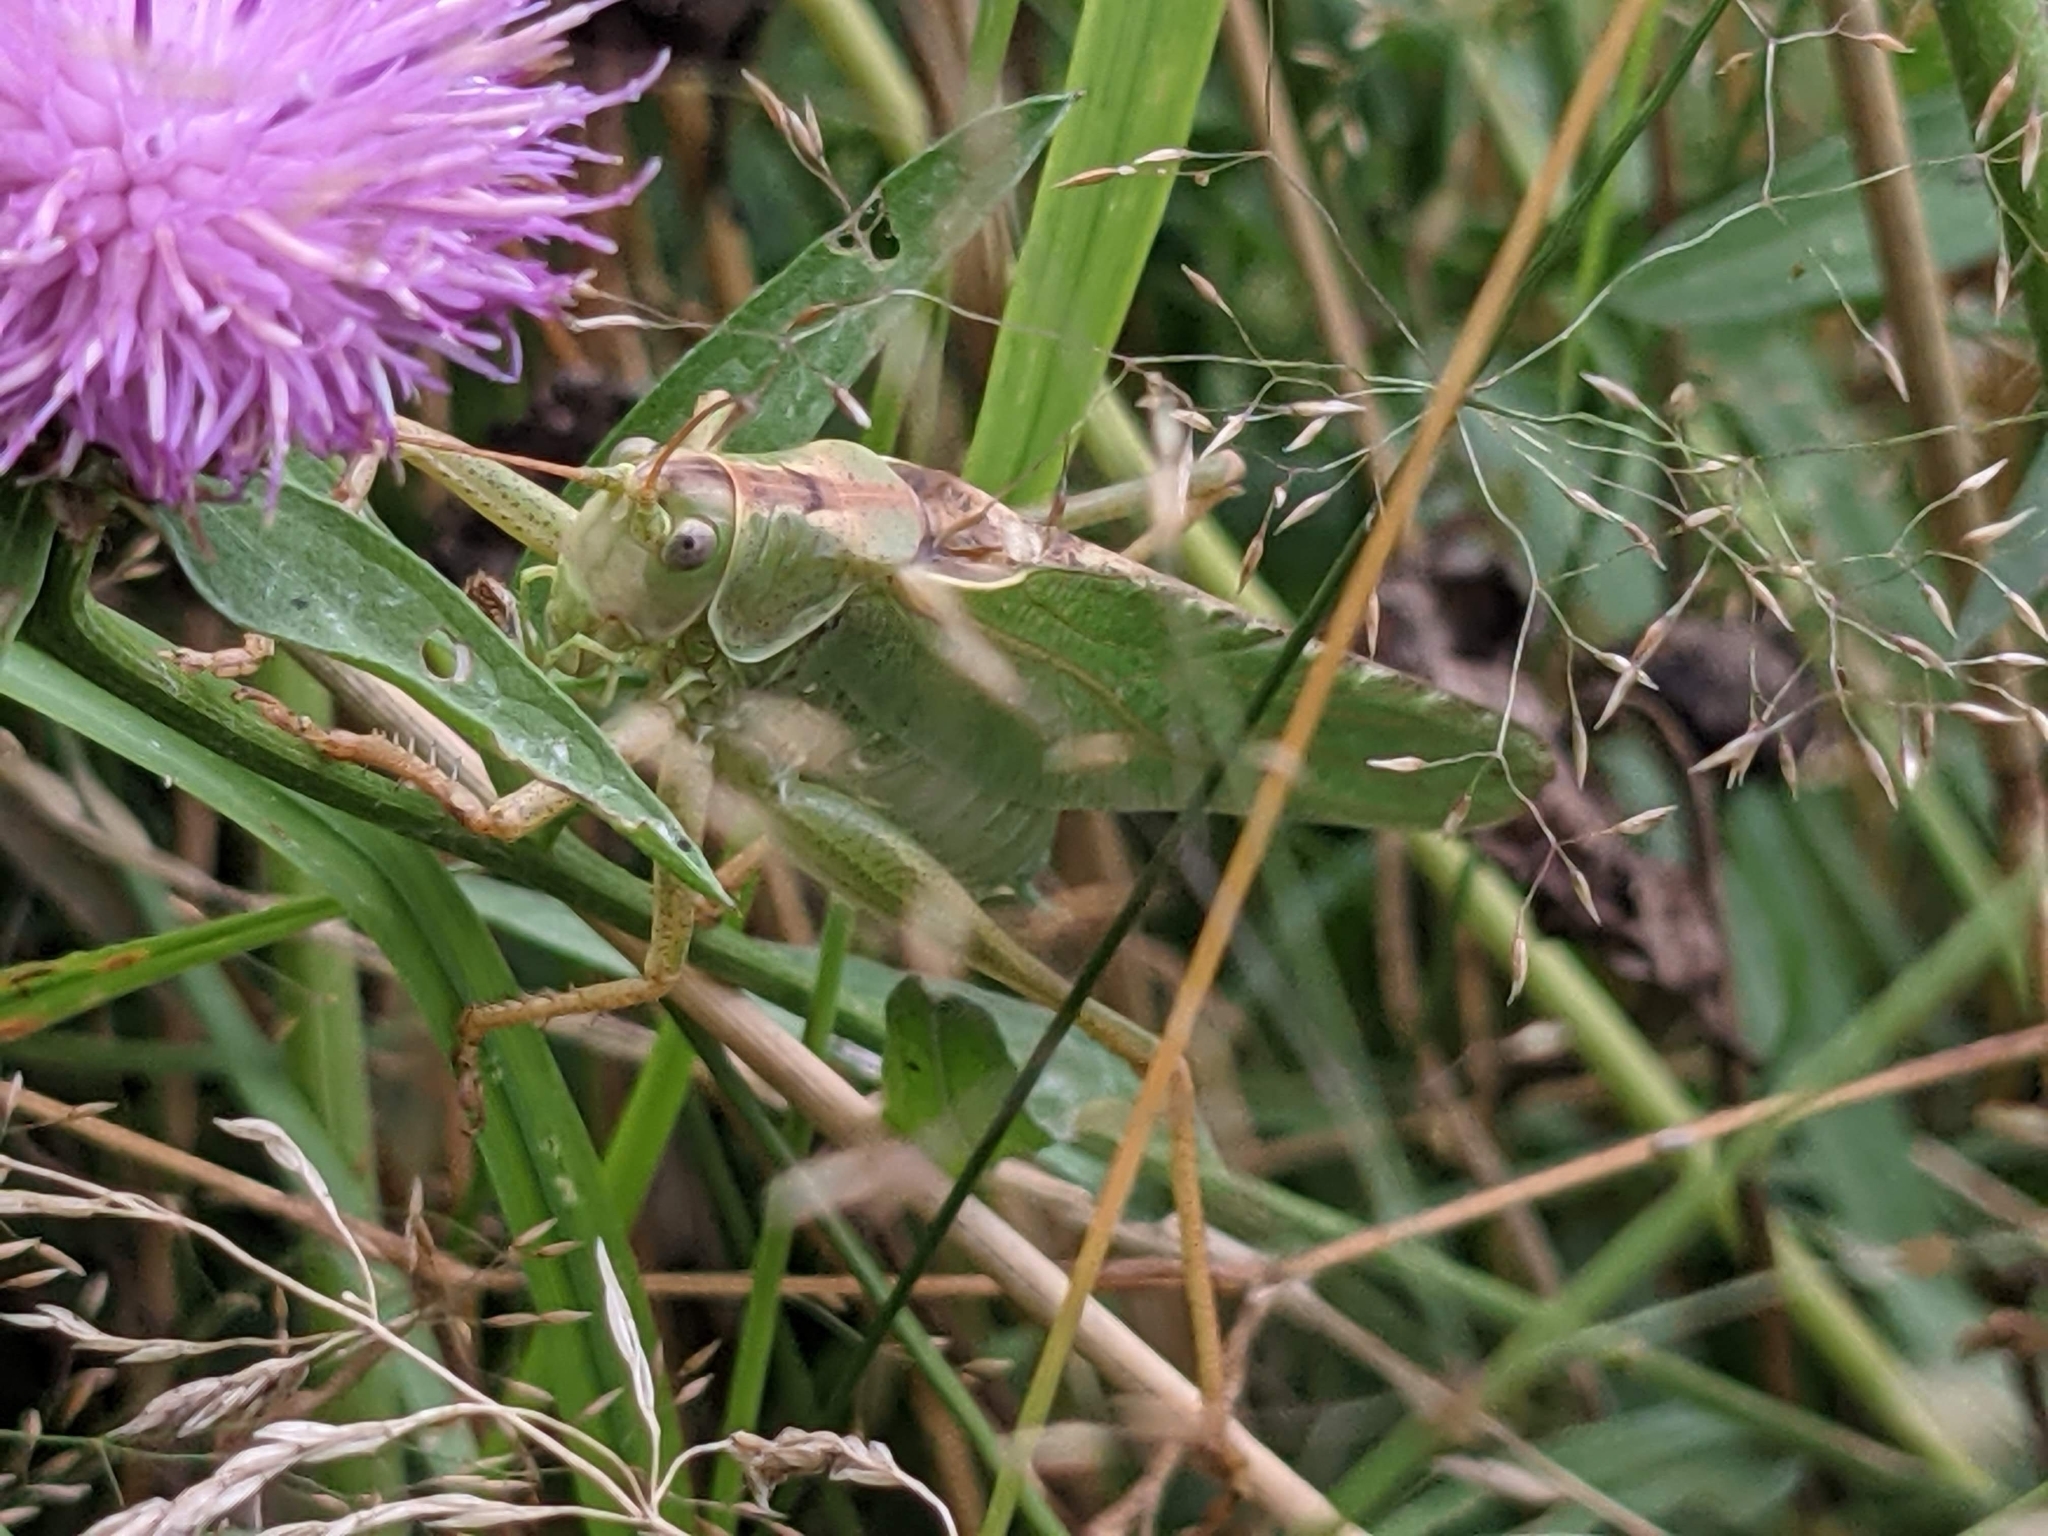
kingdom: Animalia
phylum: Arthropoda
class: Insecta
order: Orthoptera
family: Tettigoniidae
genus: Tettigonia
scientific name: Tettigonia viridissima
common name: Great green bush-cricket
